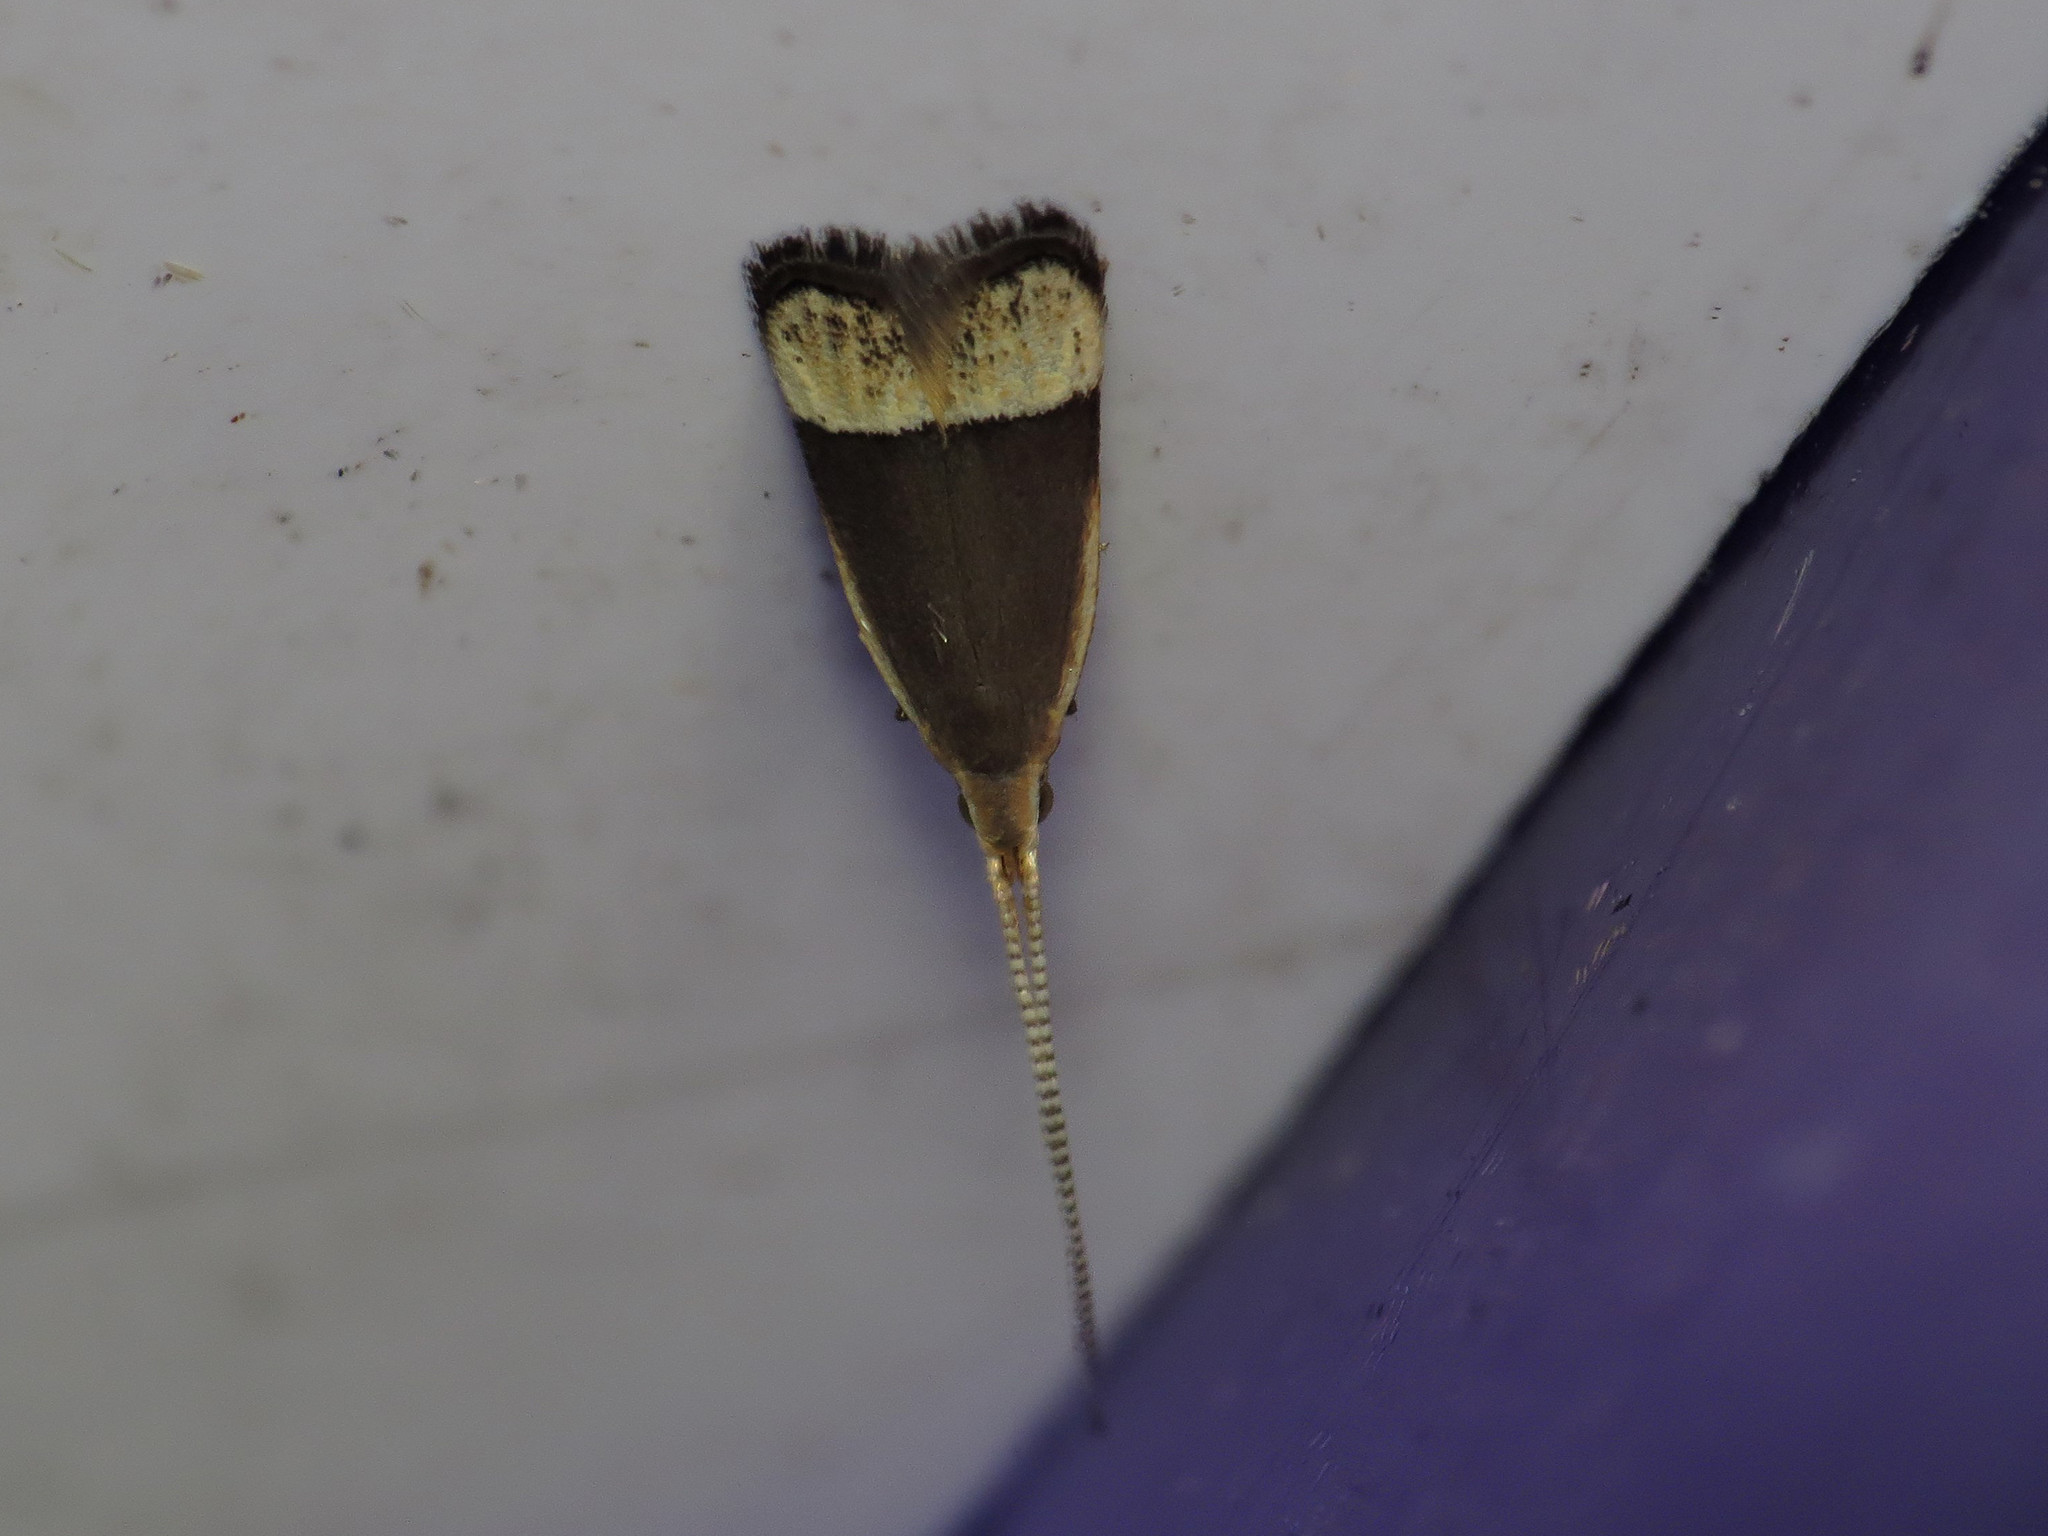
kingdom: Animalia
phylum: Arthropoda
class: Insecta
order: Lepidoptera
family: Lecithoceridae
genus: Sarisophora
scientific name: Sarisophora tenella
